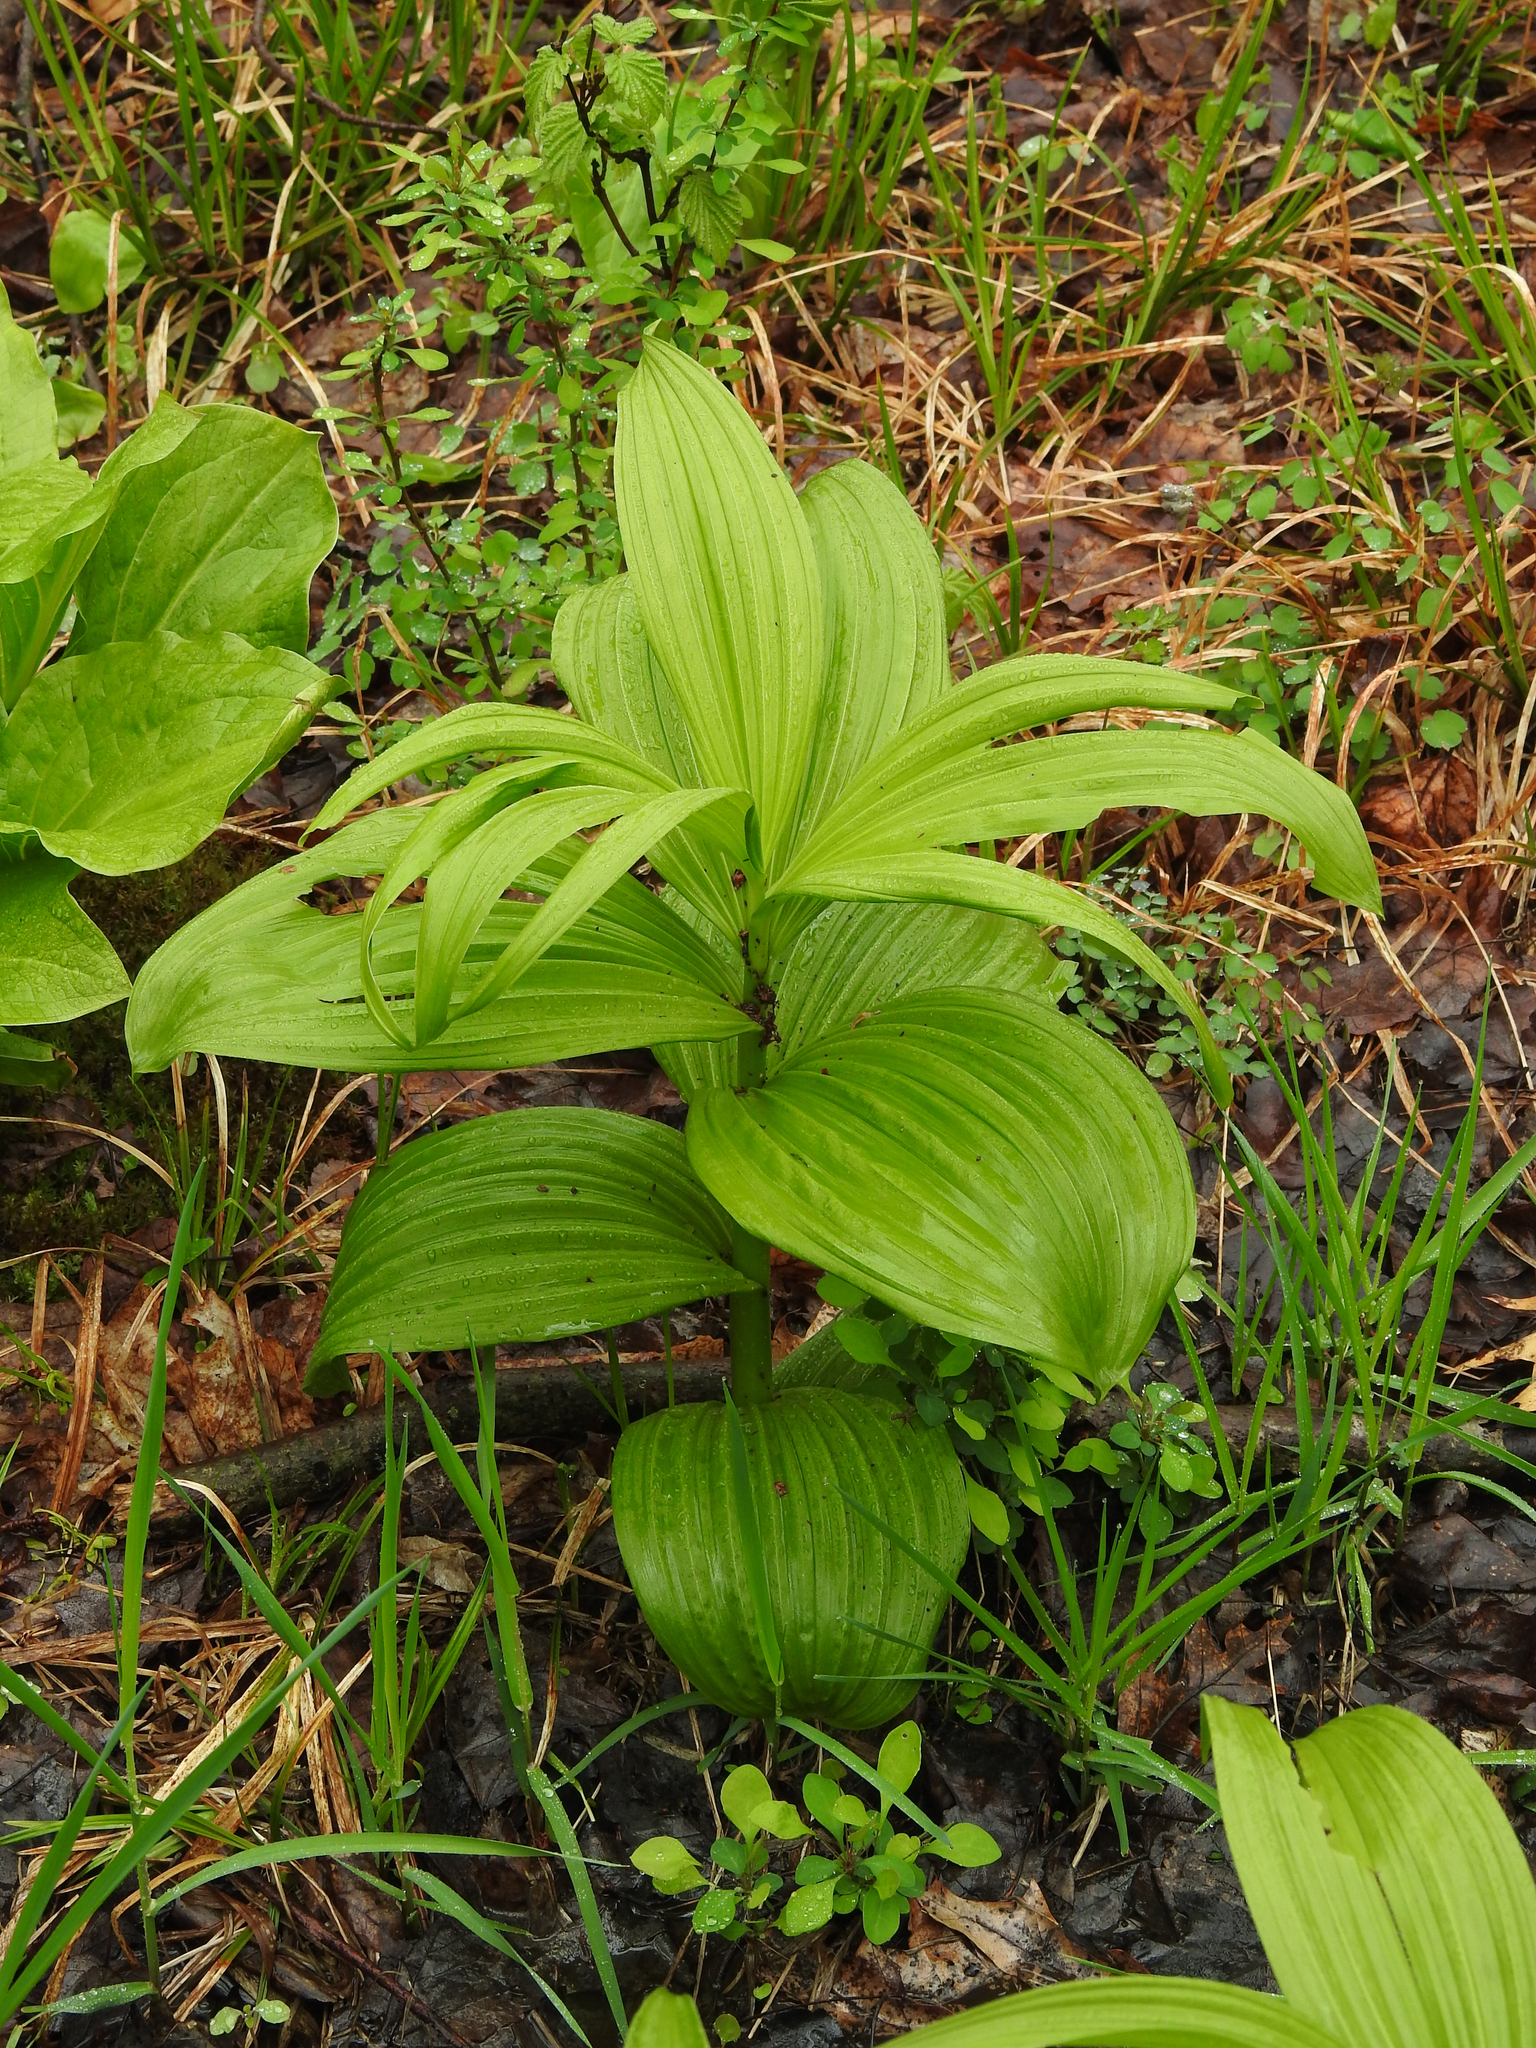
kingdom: Plantae
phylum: Tracheophyta
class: Liliopsida
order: Liliales
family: Melanthiaceae
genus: Veratrum
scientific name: Veratrum viride
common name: American false hellebore
